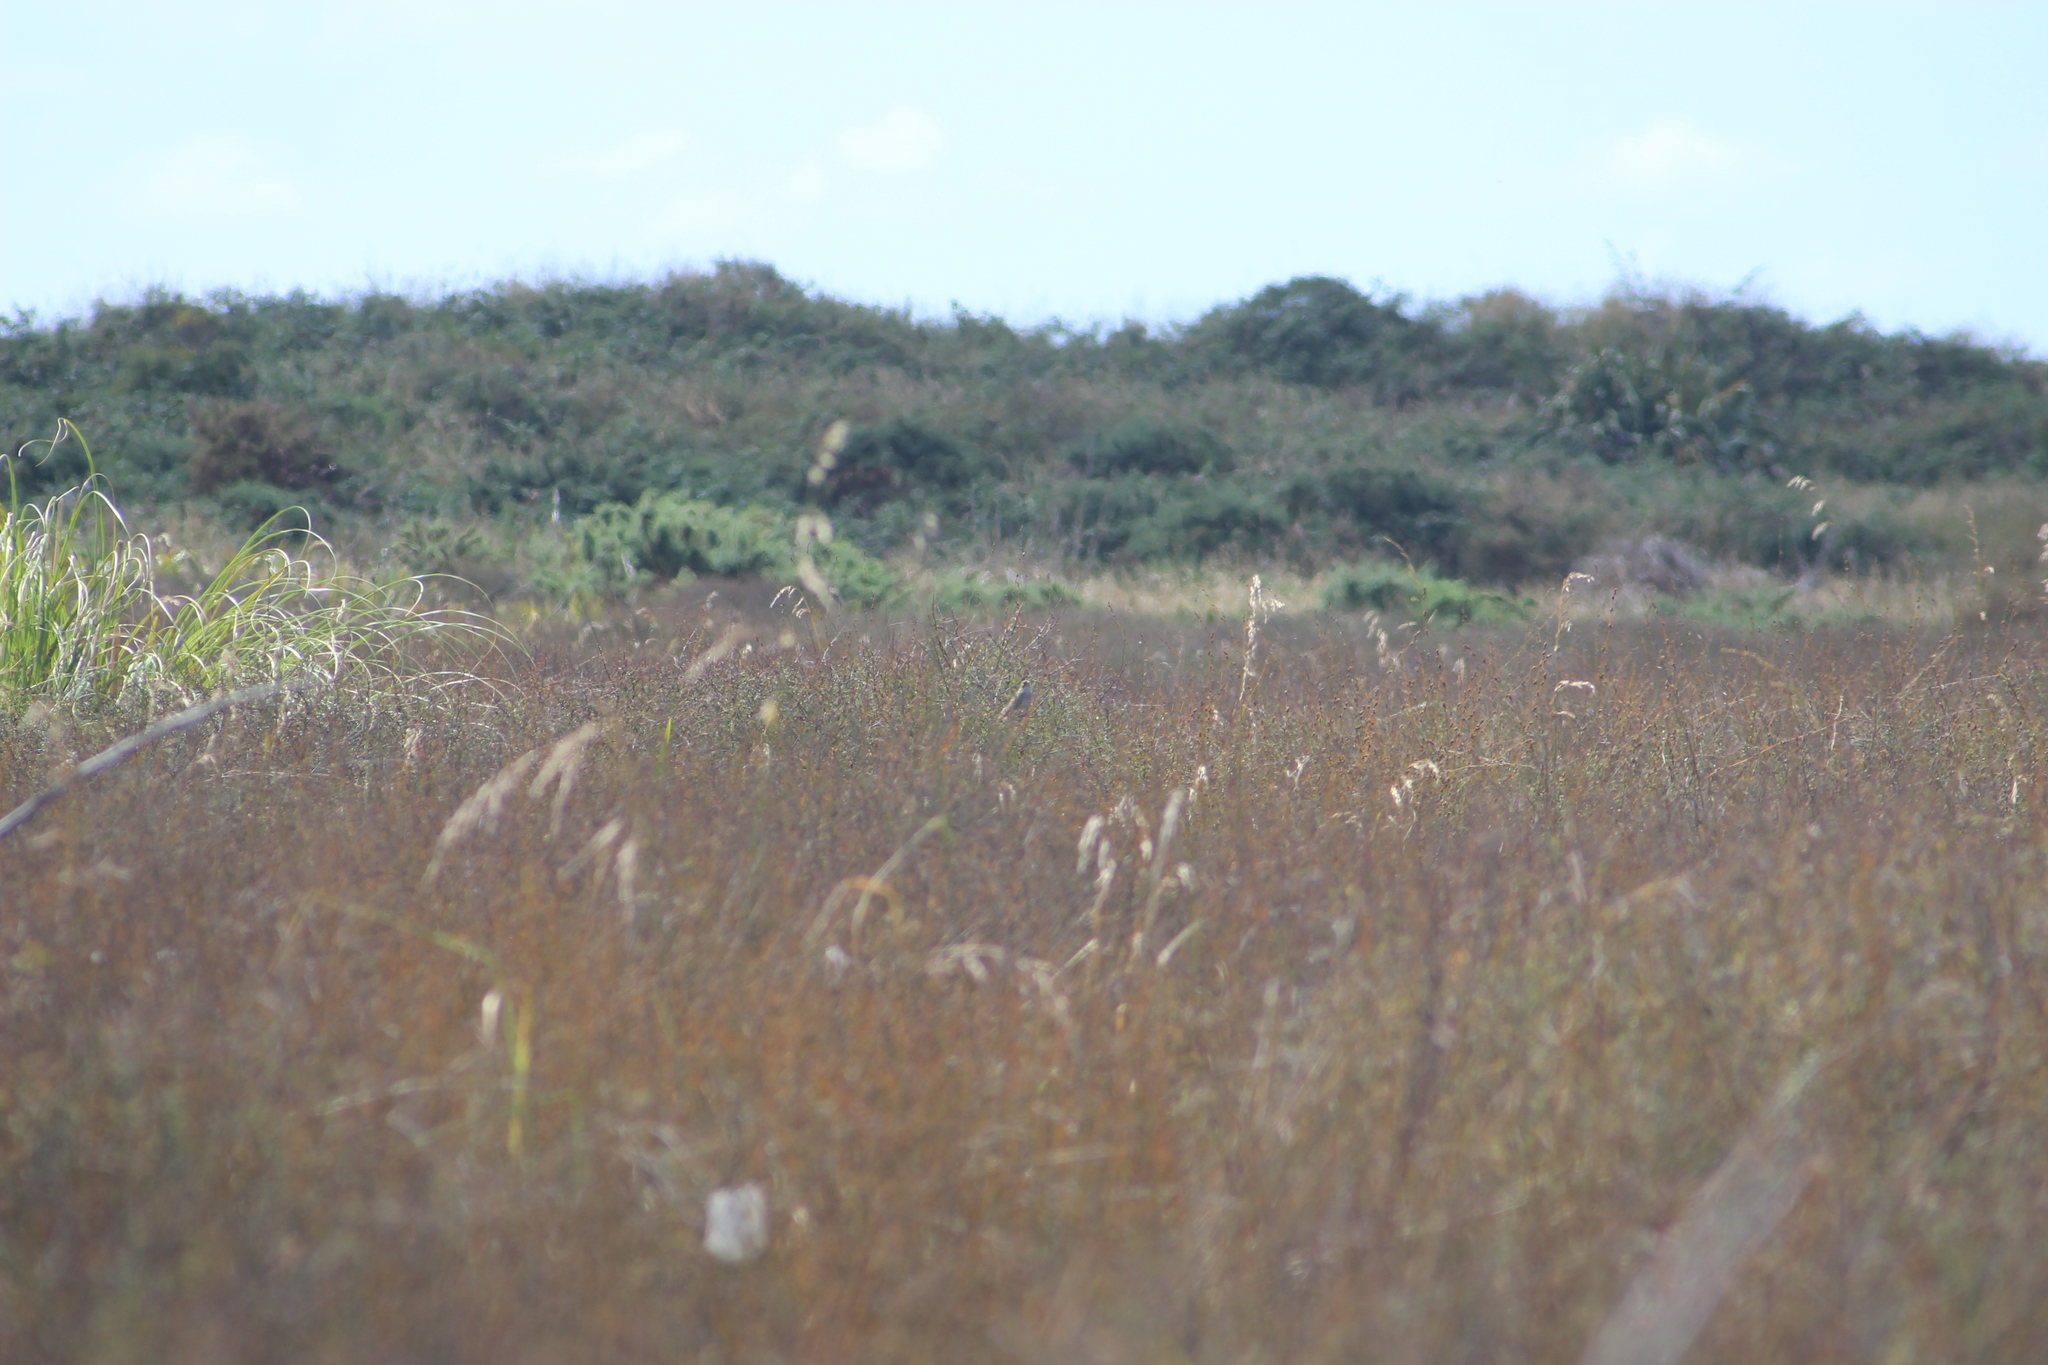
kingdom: Animalia
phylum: Chordata
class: Aves
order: Passeriformes
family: Locustellidae
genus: Megalurus
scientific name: Megalurus punctatus
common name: New zealand fernbird
